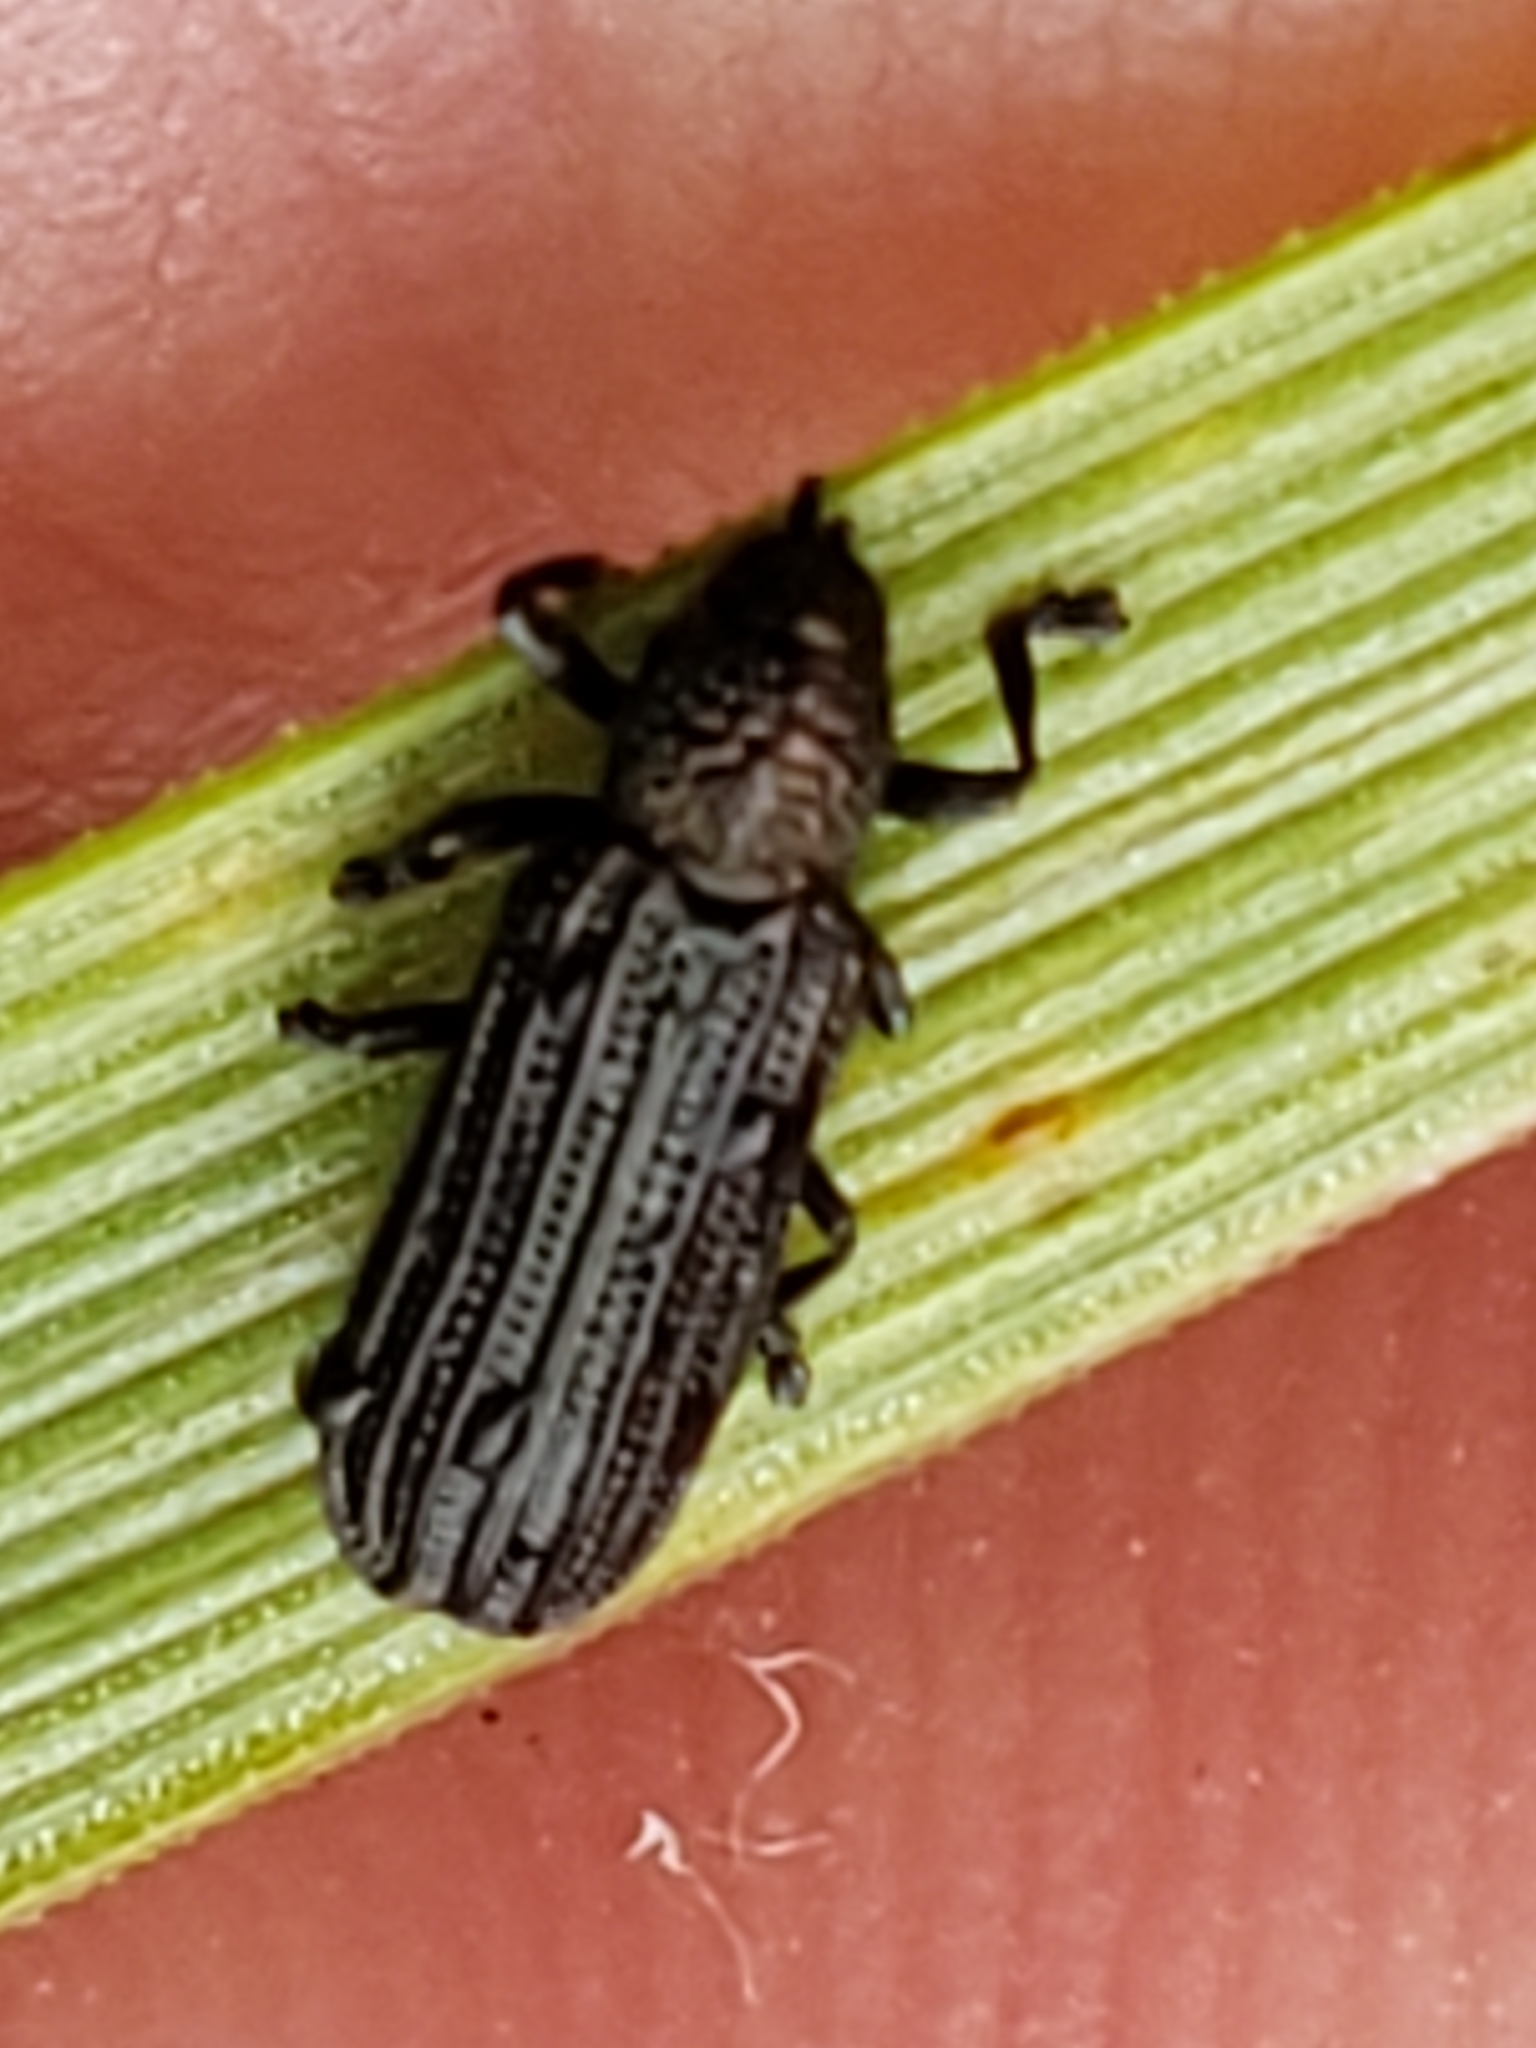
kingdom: Animalia
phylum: Arthropoda
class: Insecta
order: Coleoptera
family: Chrysomelidae
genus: Anisostena
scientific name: Anisostena nigrita
